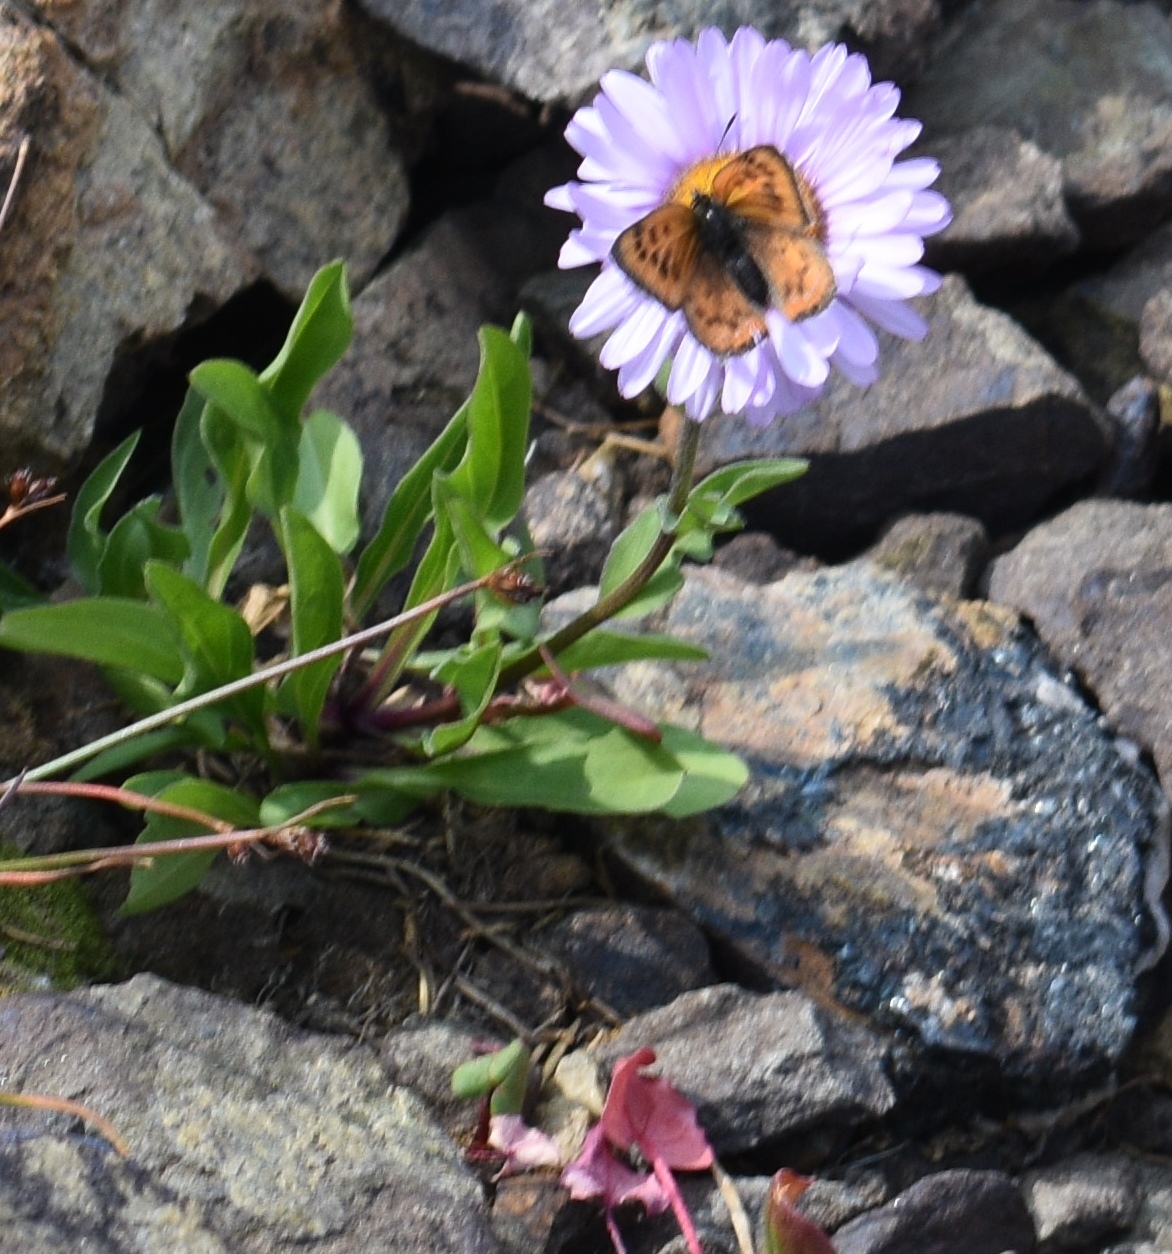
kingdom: Animalia
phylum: Arthropoda
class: Insecta
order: Lepidoptera
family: Lycaenidae
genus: Lycaena
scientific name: Lycaena cupreus
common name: Lustrous copper
